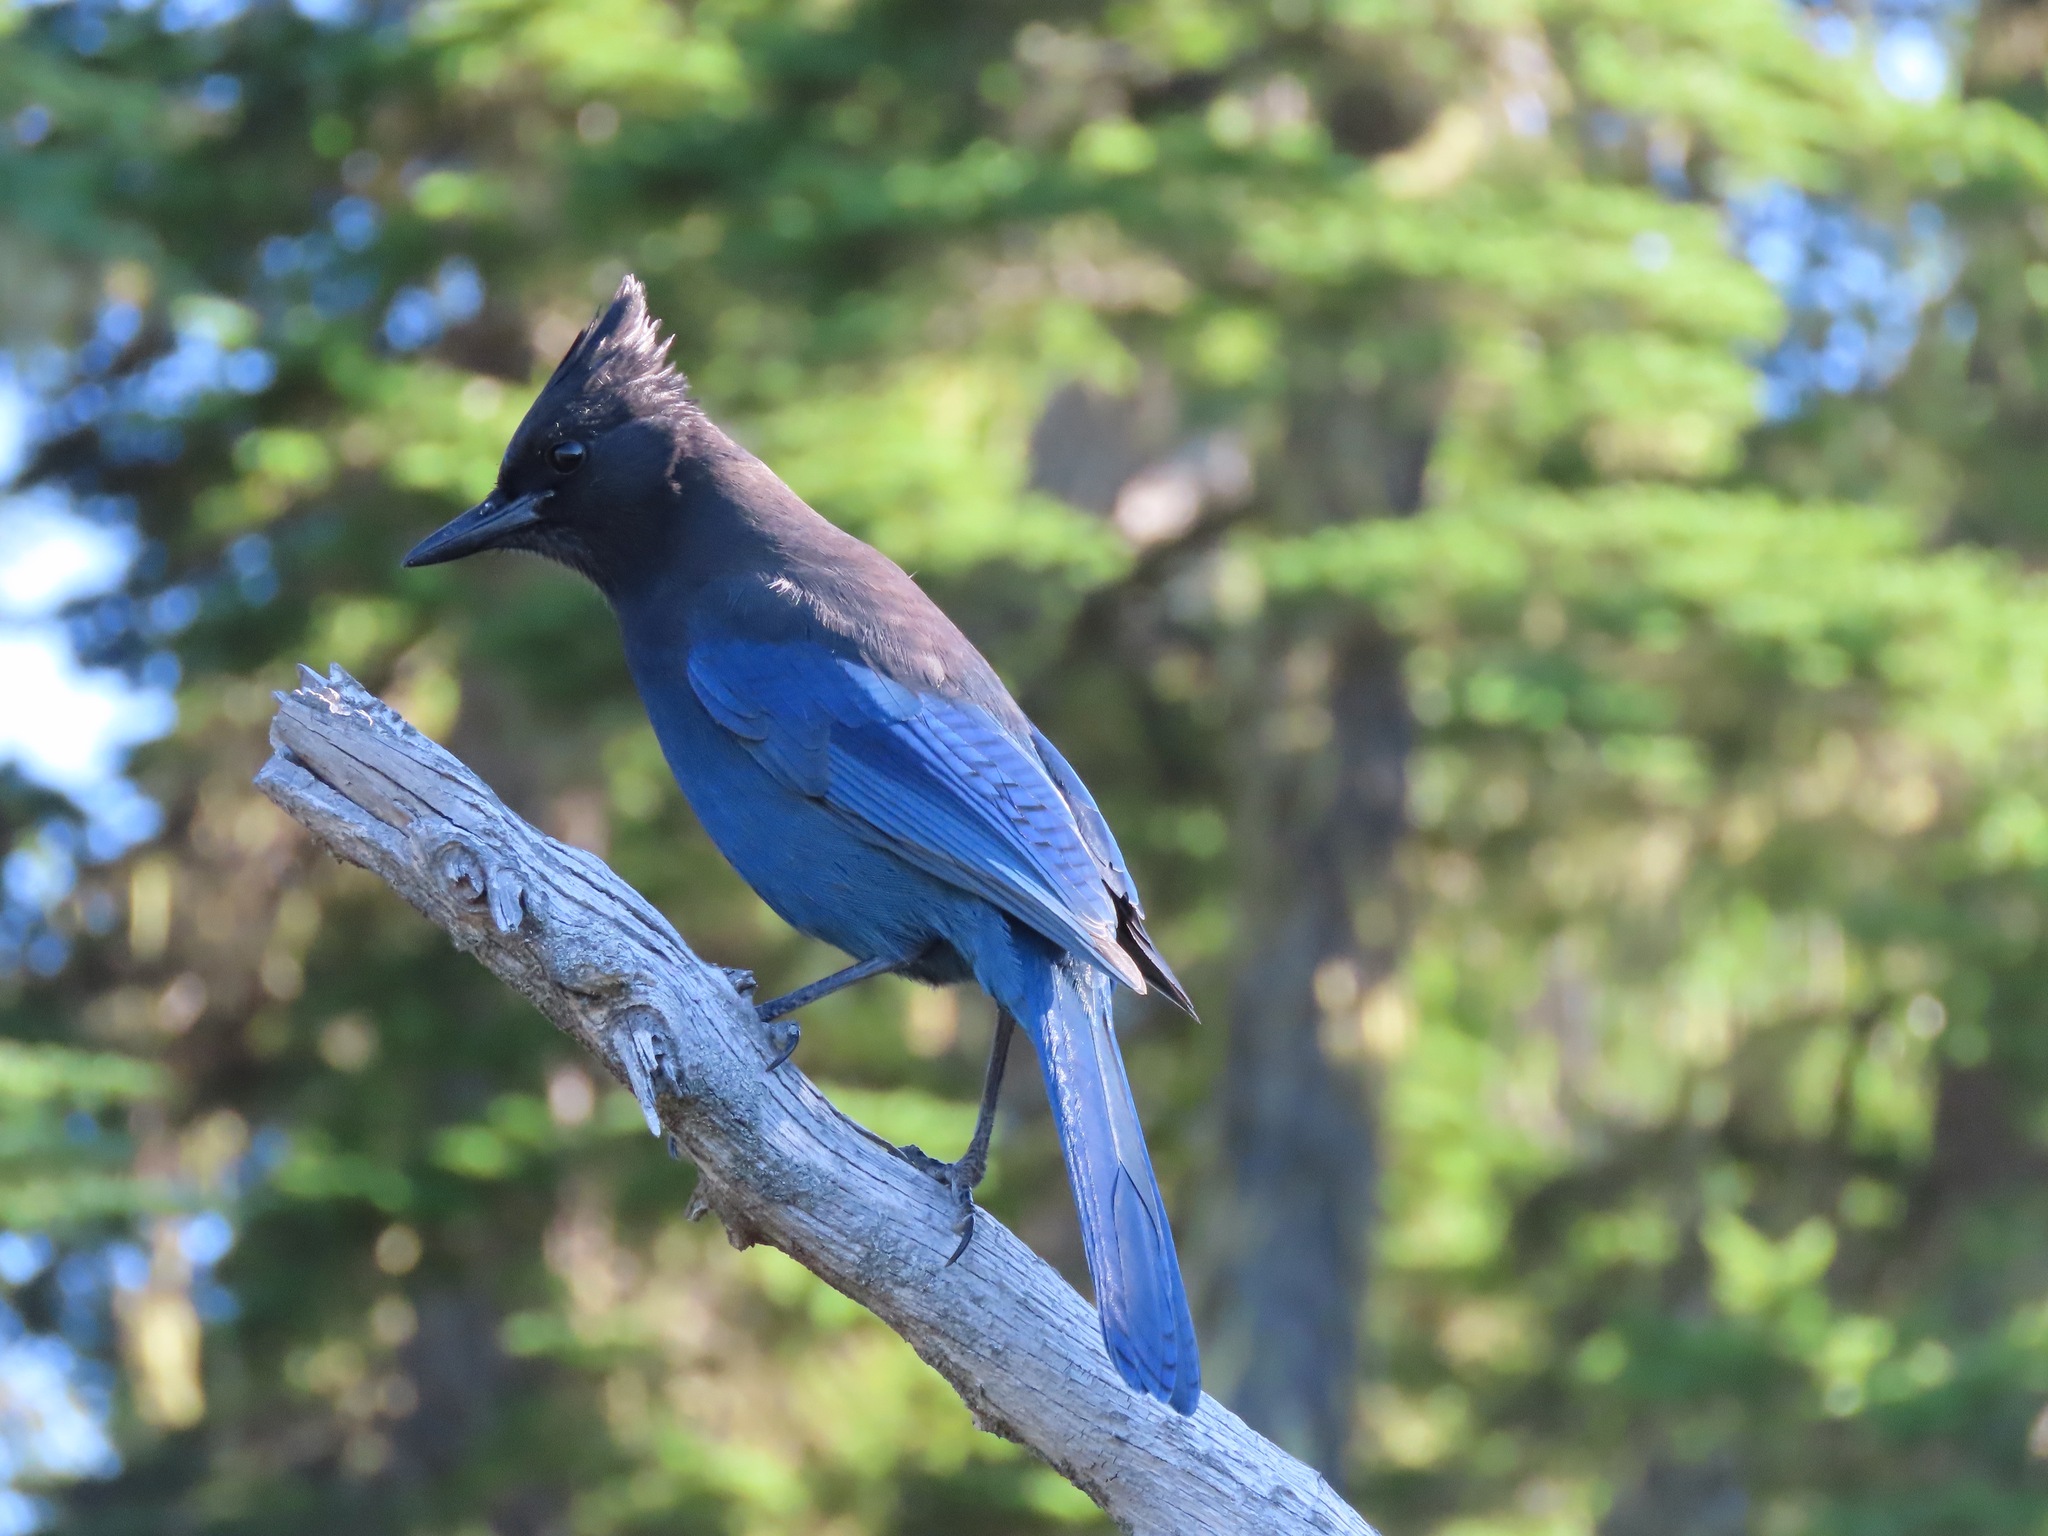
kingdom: Animalia
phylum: Chordata
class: Aves
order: Passeriformes
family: Corvidae
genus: Cyanocitta
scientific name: Cyanocitta stelleri
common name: Steller's jay
